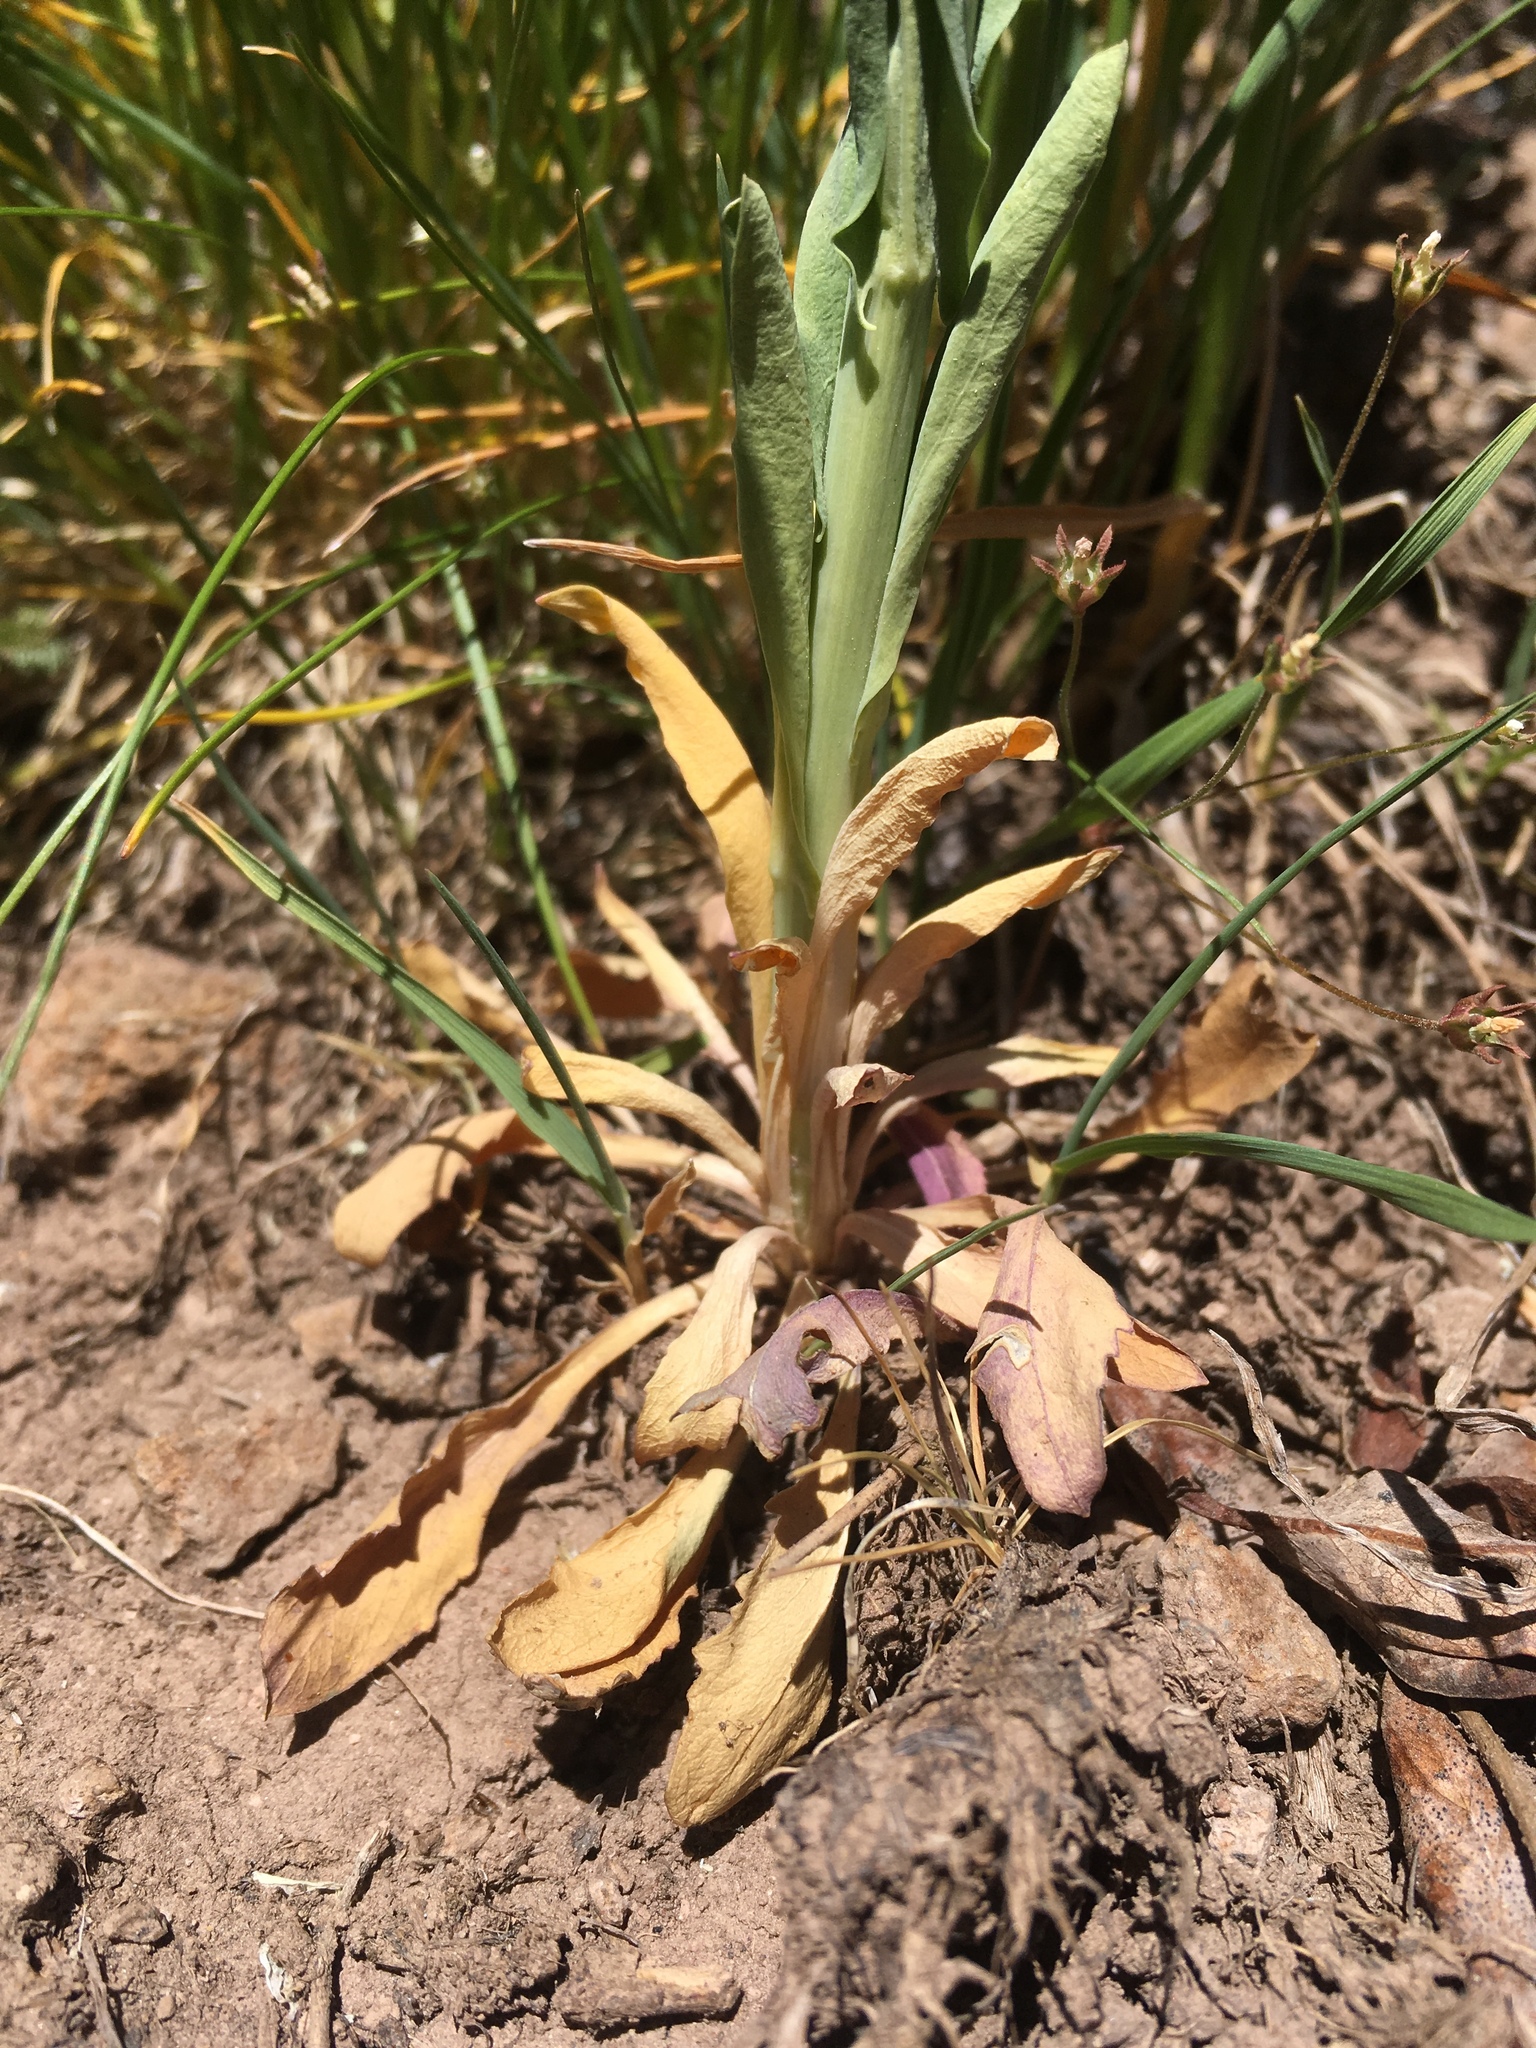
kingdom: Plantae
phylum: Tracheophyta
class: Magnoliopsida
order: Brassicales
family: Brassicaceae
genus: Boechera
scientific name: Boechera stricta
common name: Canadian rockcress
